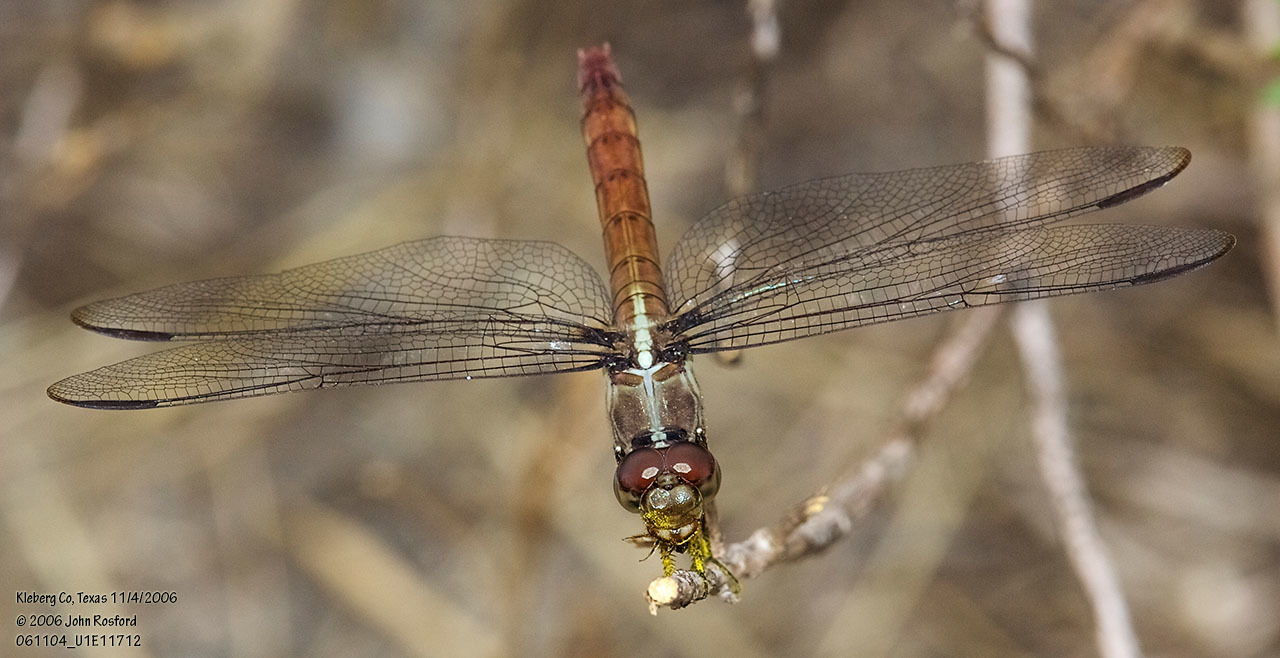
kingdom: Animalia
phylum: Arthropoda
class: Insecta
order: Odonata
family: Libellulidae
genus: Orthemis
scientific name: Orthemis ferruginea
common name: Roseate skimmer
